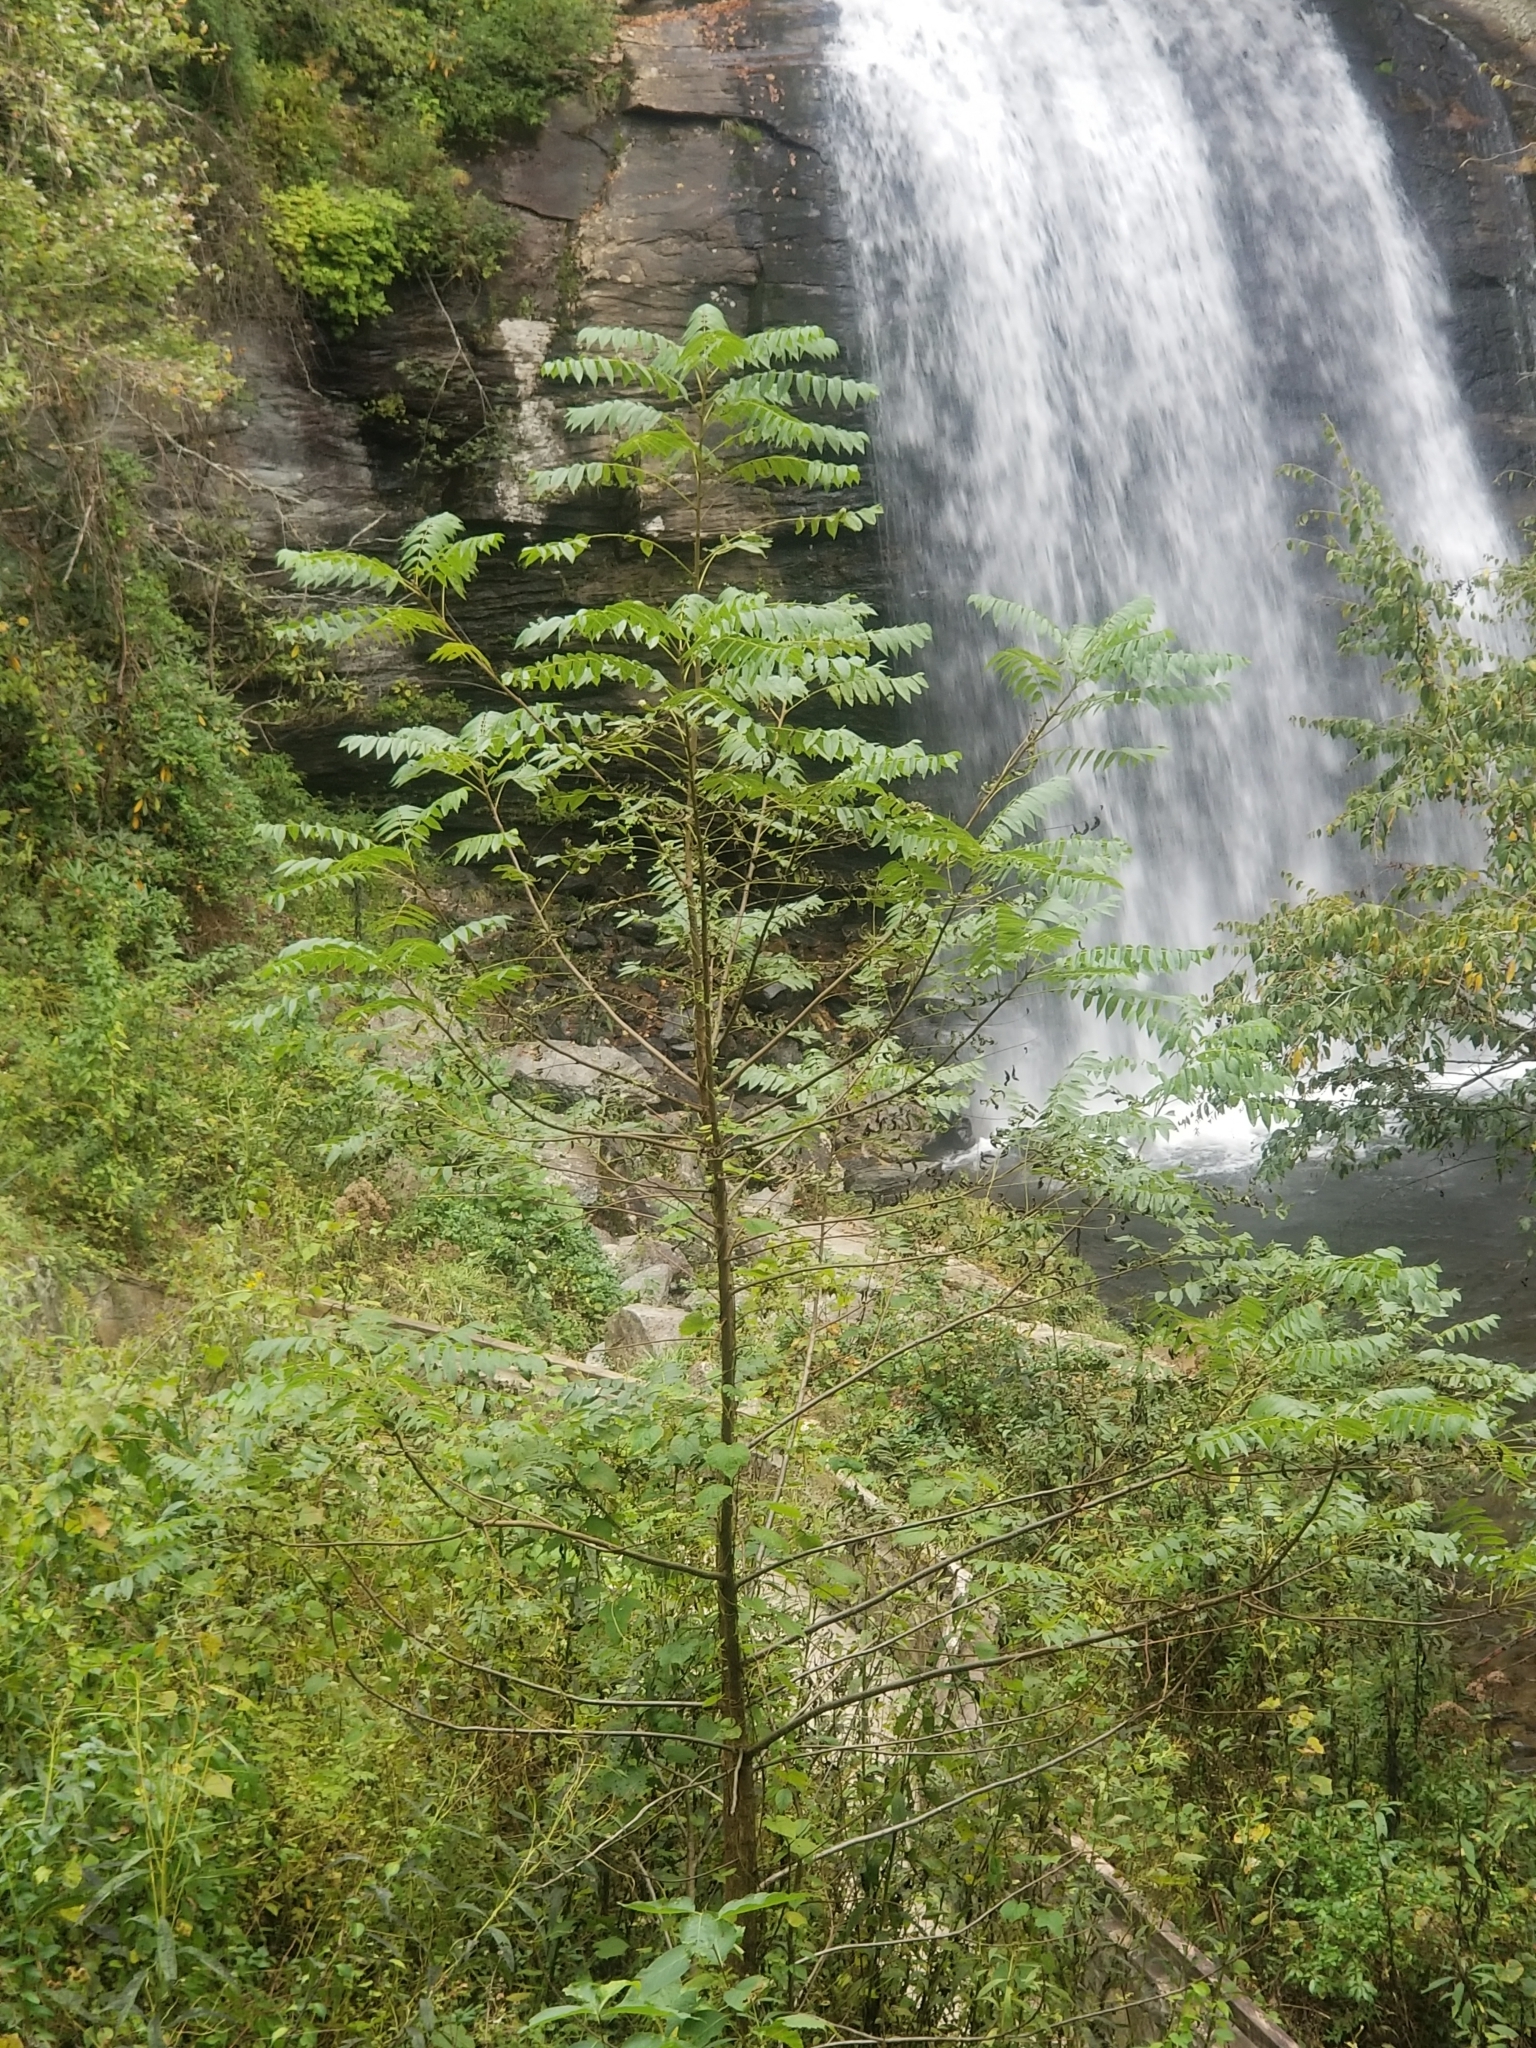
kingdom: Plantae
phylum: Tracheophyta
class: Magnoliopsida
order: Sapindales
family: Simaroubaceae
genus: Ailanthus
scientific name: Ailanthus altissima
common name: Tree-of-heaven
